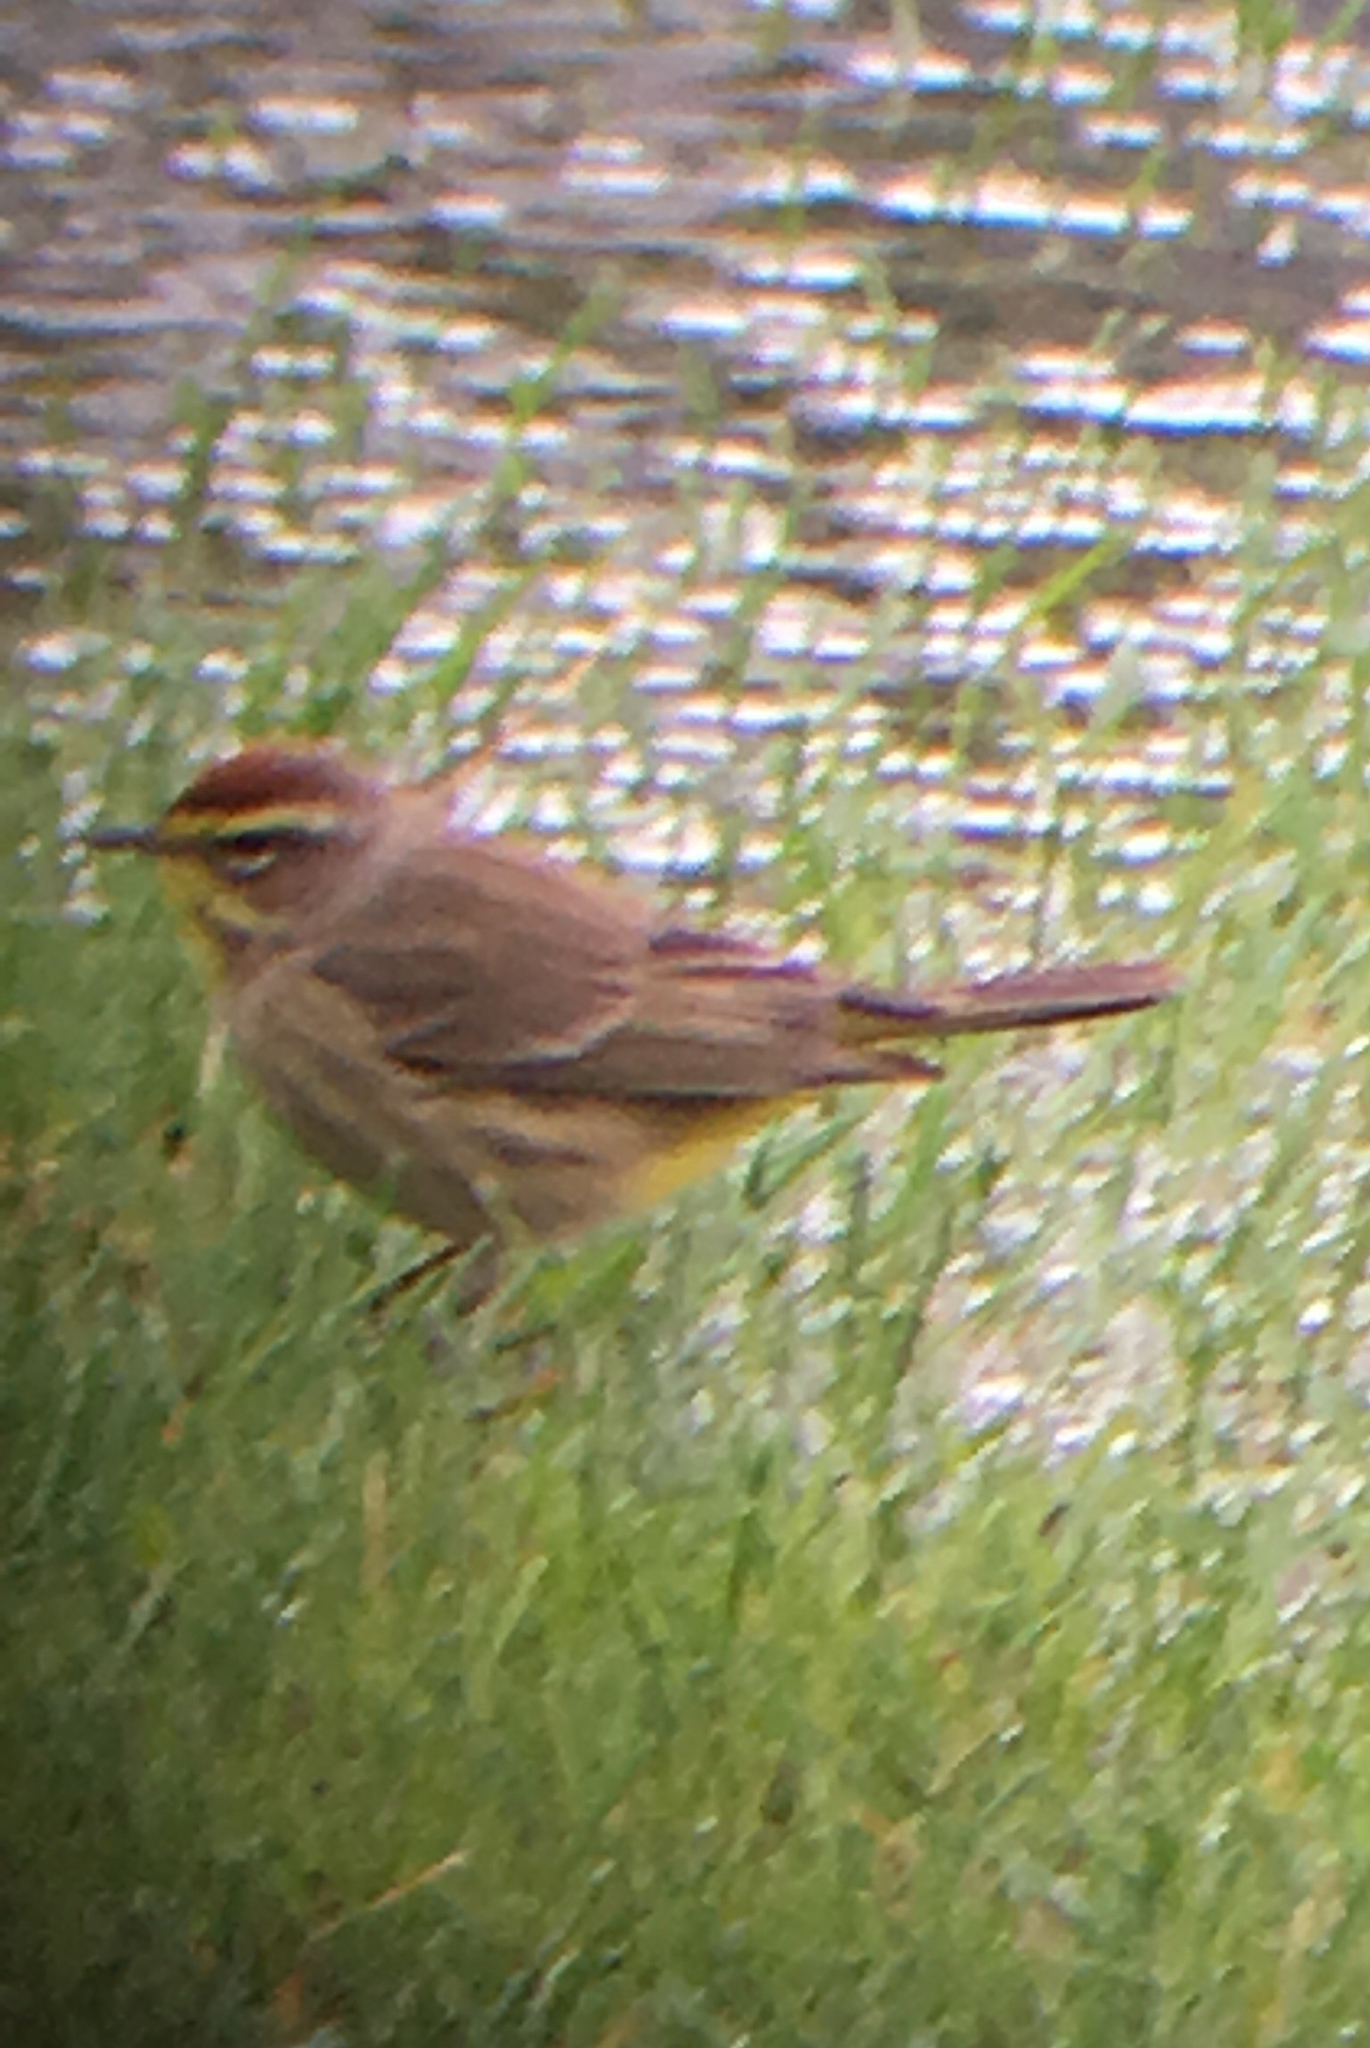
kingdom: Animalia
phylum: Chordata
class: Aves
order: Passeriformes
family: Parulidae
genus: Setophaga
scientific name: Setophaga palmarum
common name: Palm warbler
